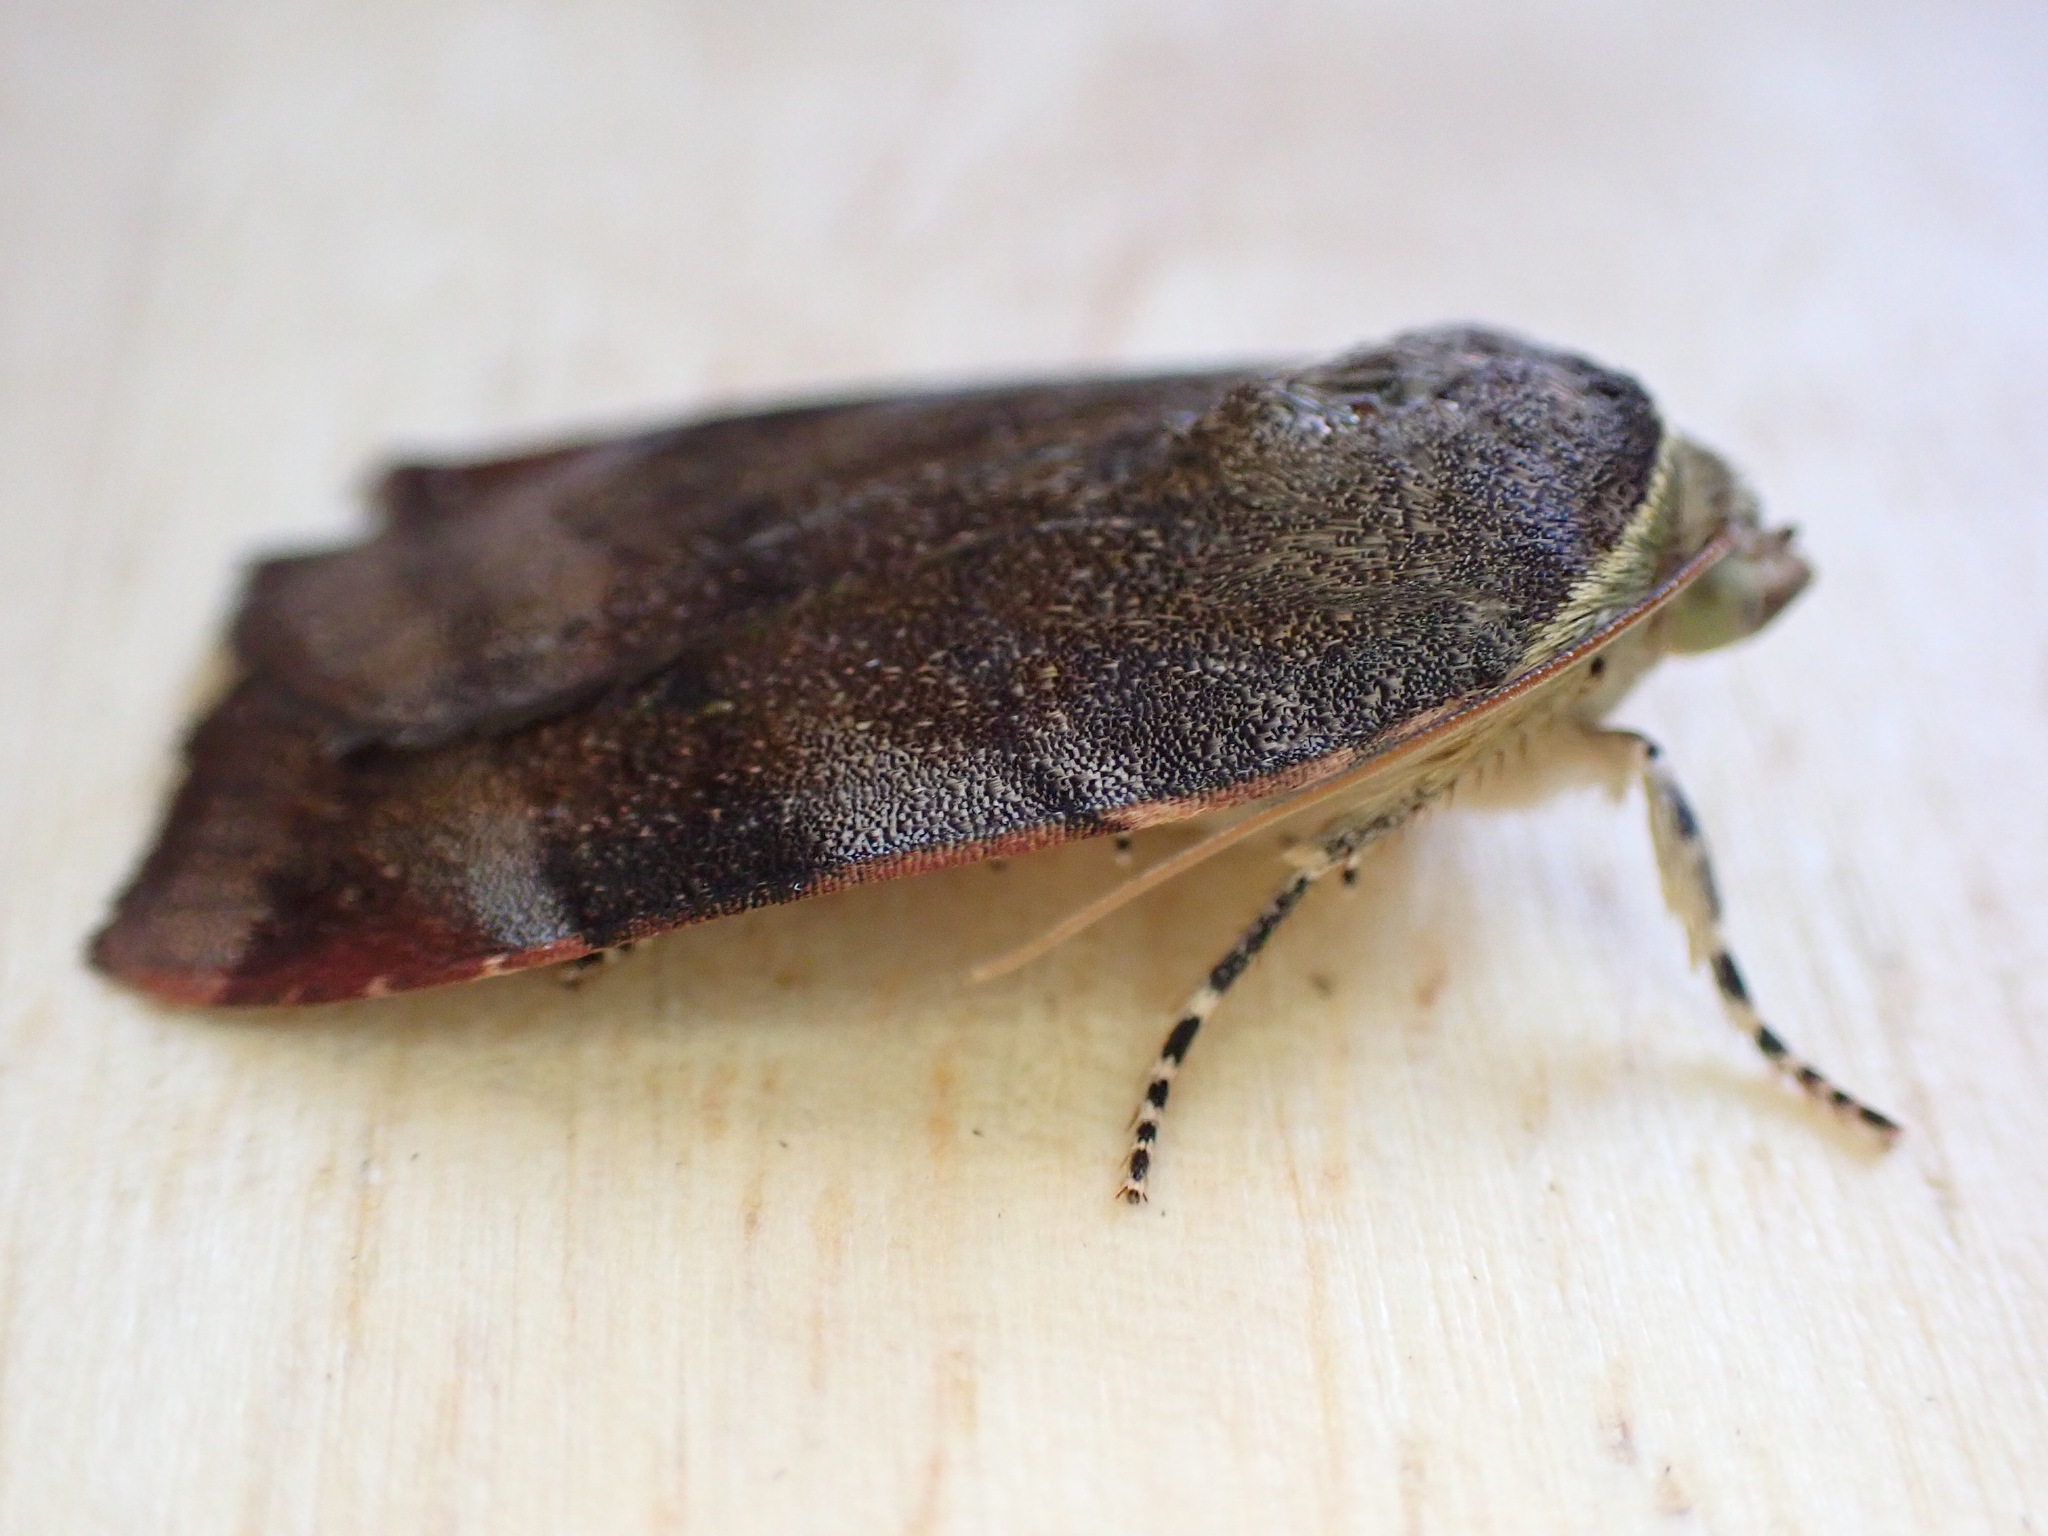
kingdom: Animalia
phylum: Arthropoda
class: Insecta
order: Lepidoptera
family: Noctuidae
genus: Noctua
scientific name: Noctua janthe
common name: Lesser broad-bordered yellow underwing
